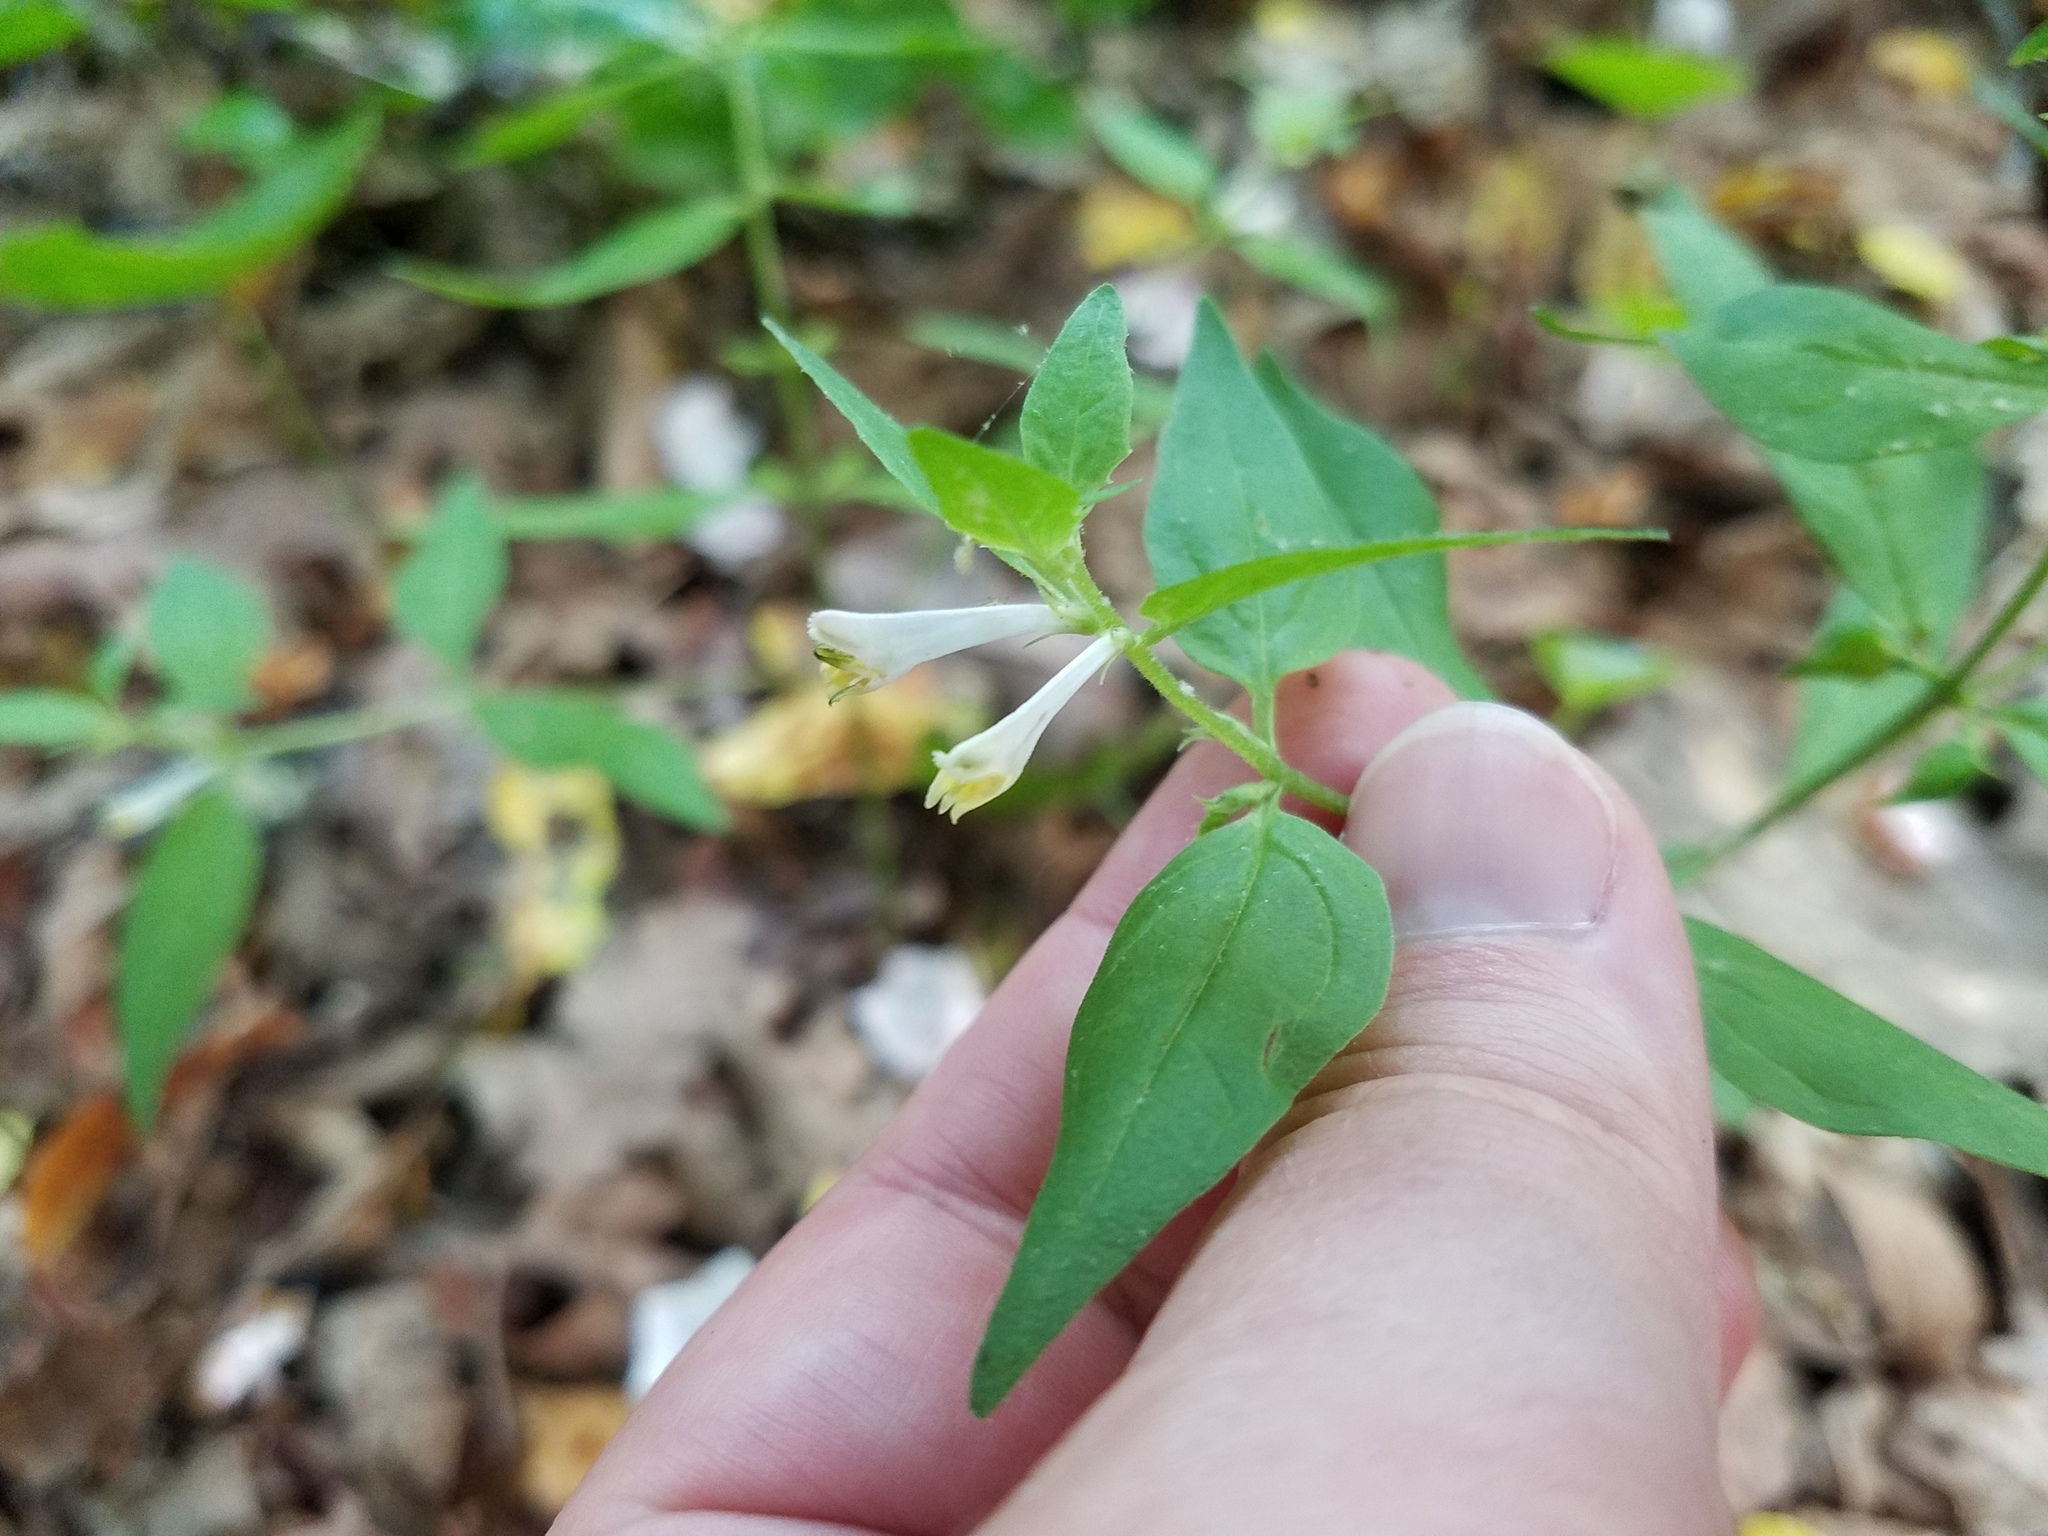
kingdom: Plantae
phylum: Tracheophyta
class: Magnoliopsida
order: Lamiales
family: Orobanchaceae
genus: Melampyrum
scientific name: Melampyrum lineare
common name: American cow-wheat
